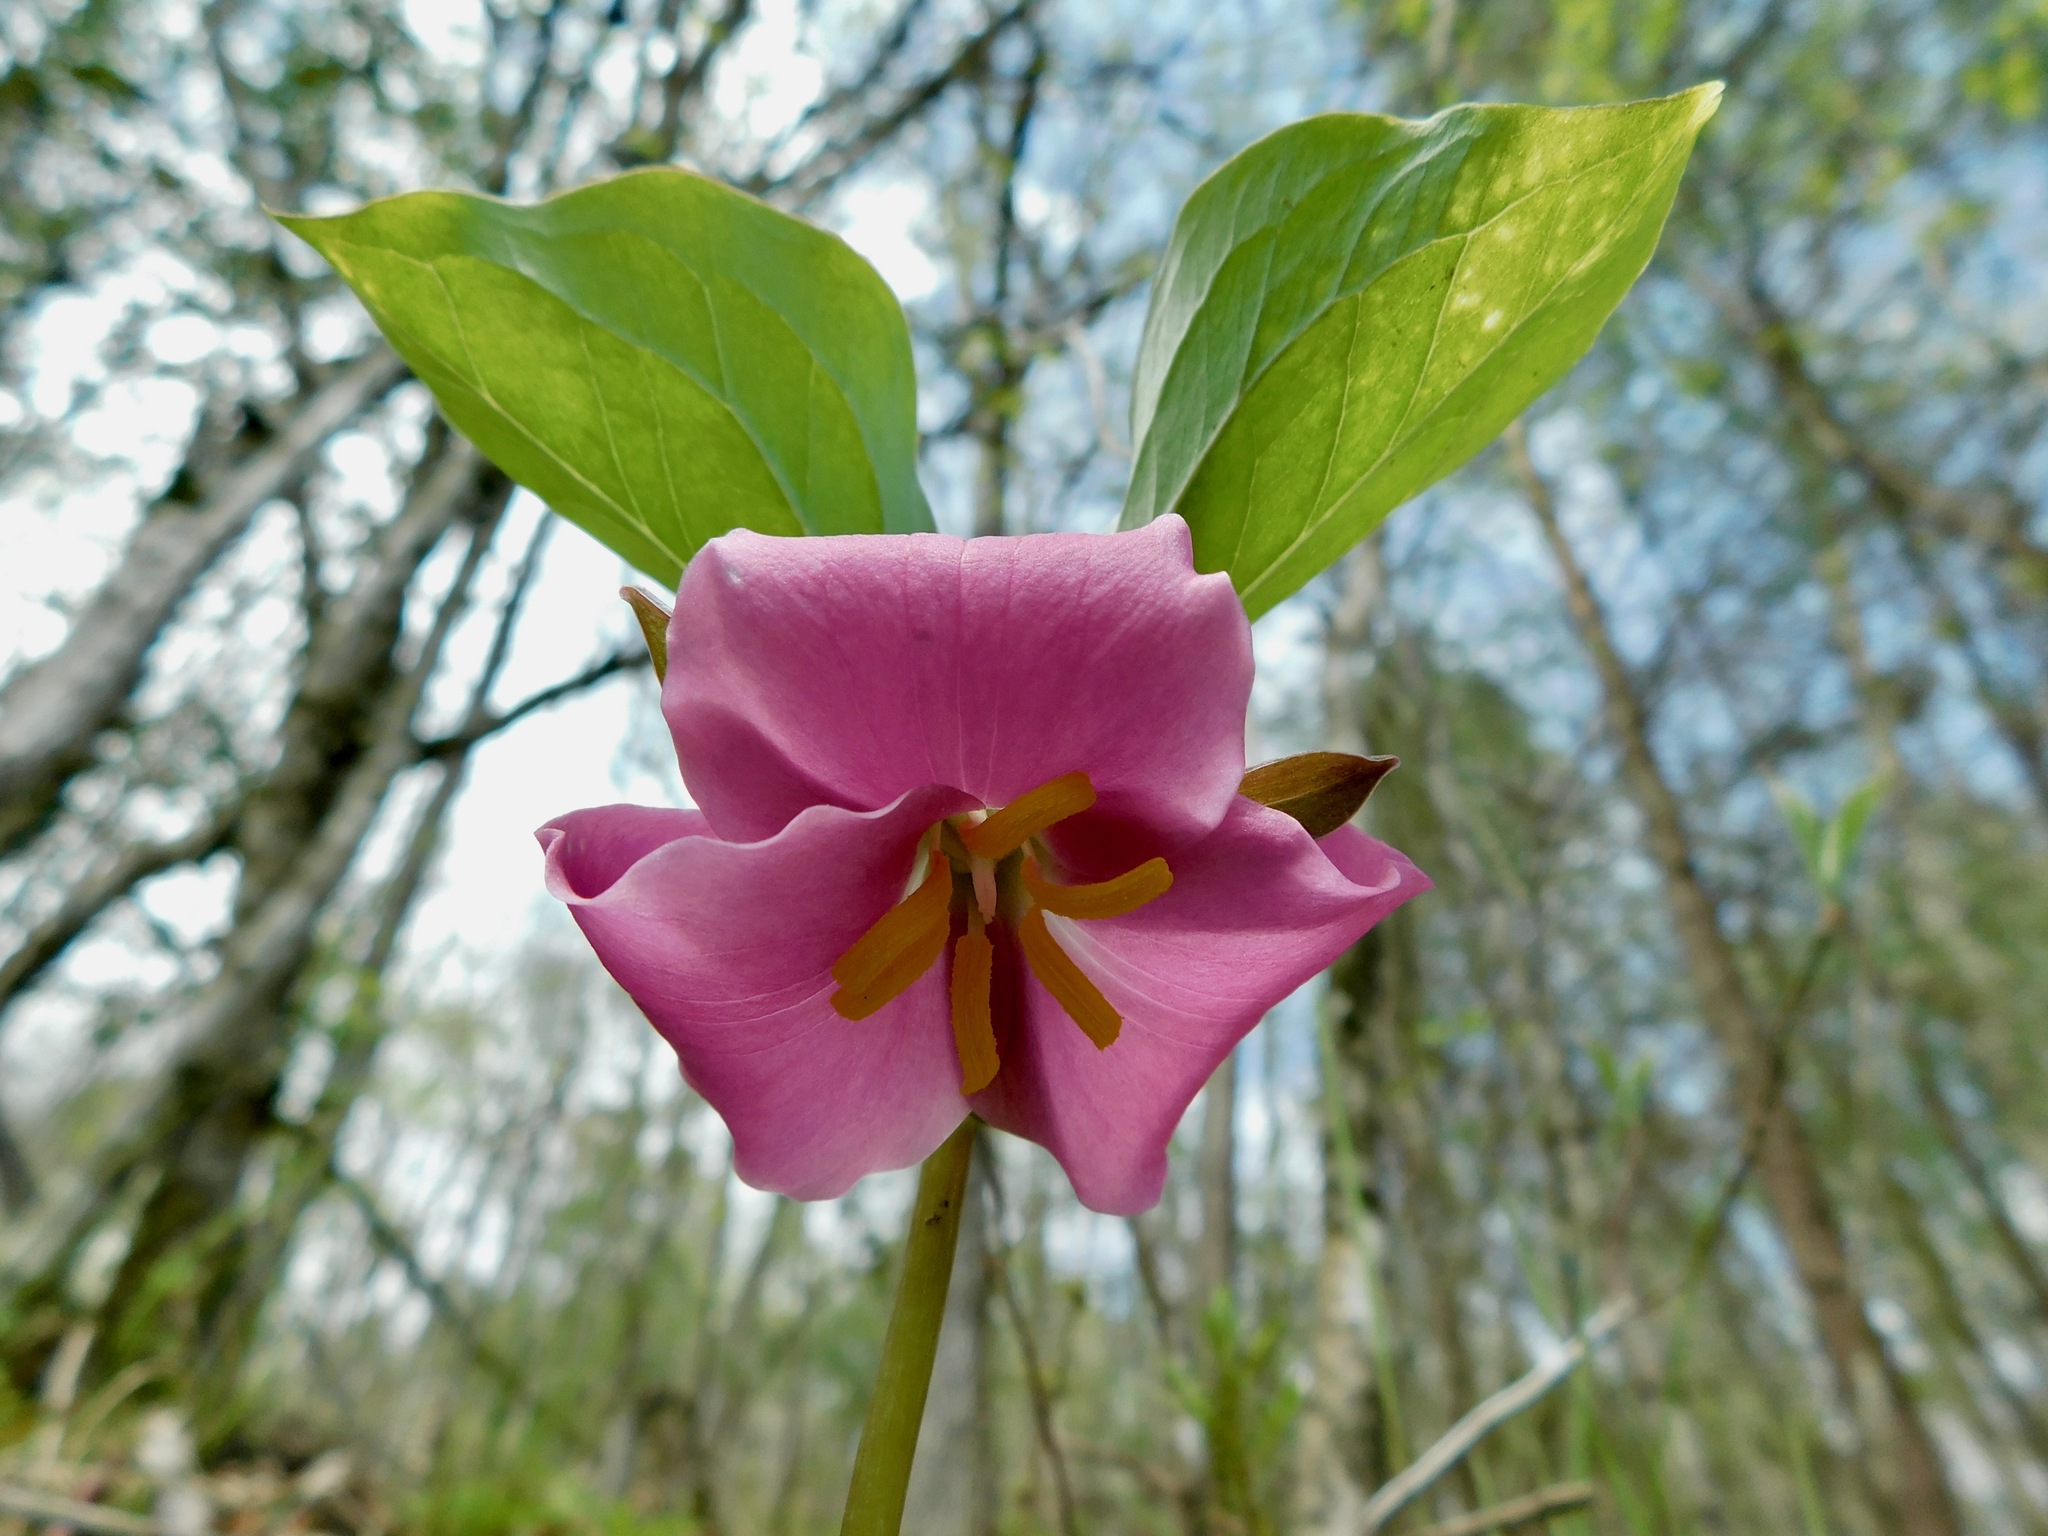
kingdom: Plantae
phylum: Tracheophyta
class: Liliopsida
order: Liliales
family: Melanthiaceae
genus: Trillium
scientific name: Trillium catesbaei
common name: Bashful trillium
